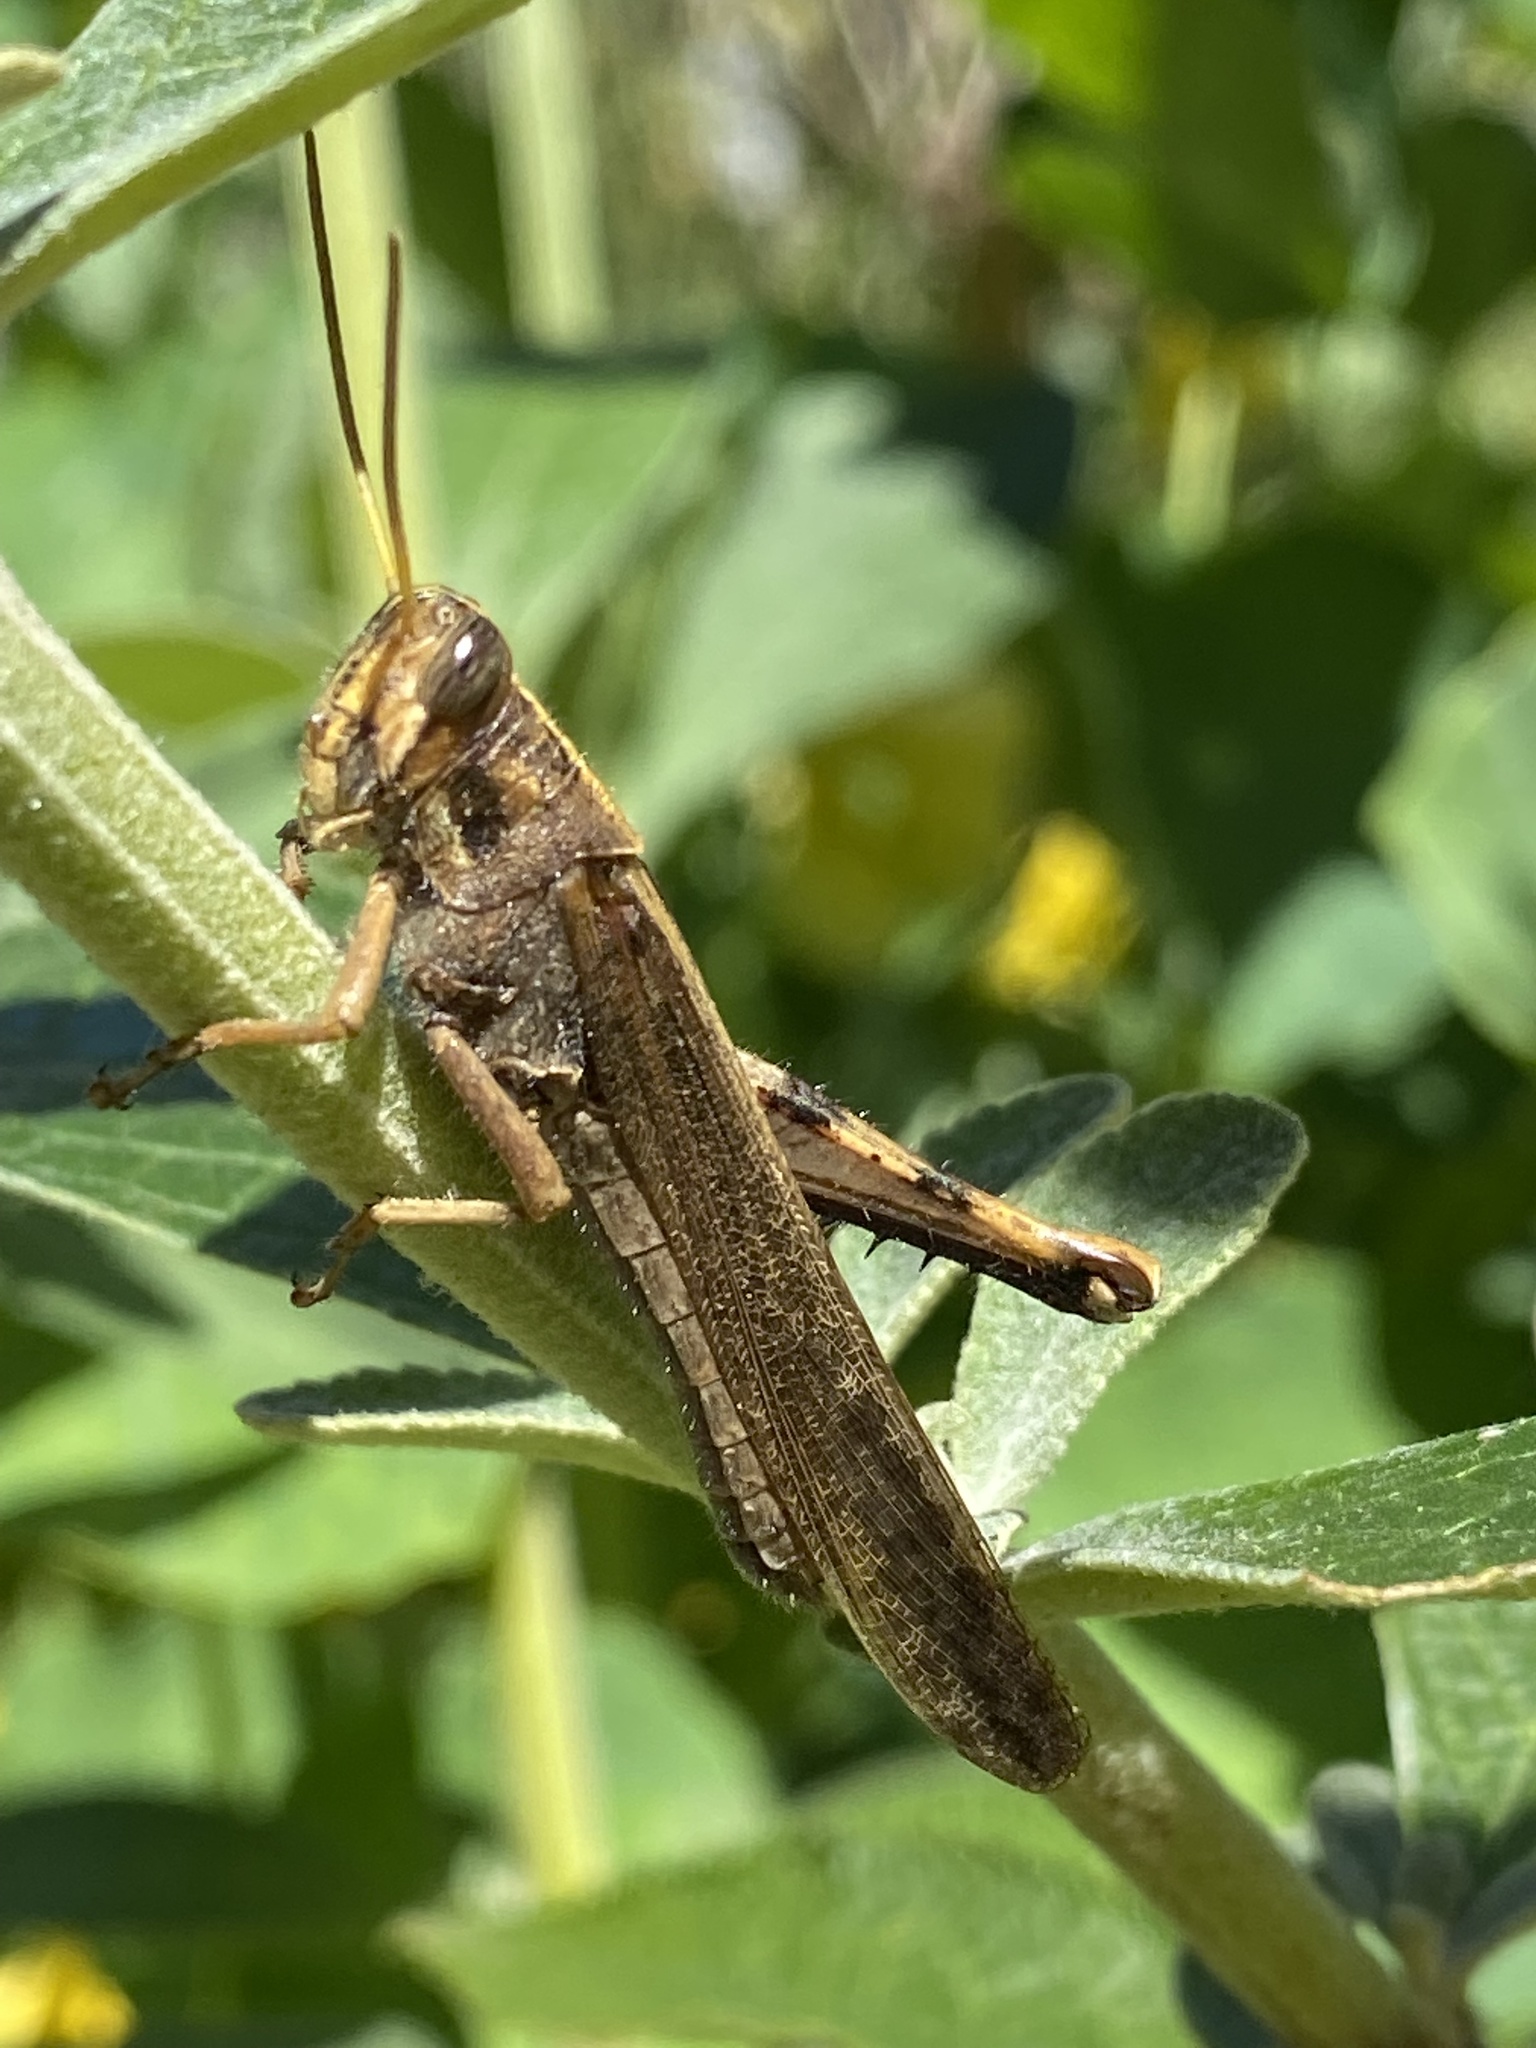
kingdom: Animalia
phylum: Arthropoda
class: Insecta
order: Orthoptera
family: Acrididae
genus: Schistocerca
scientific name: Schistocerca nitens
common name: Vagrant grasshopper
